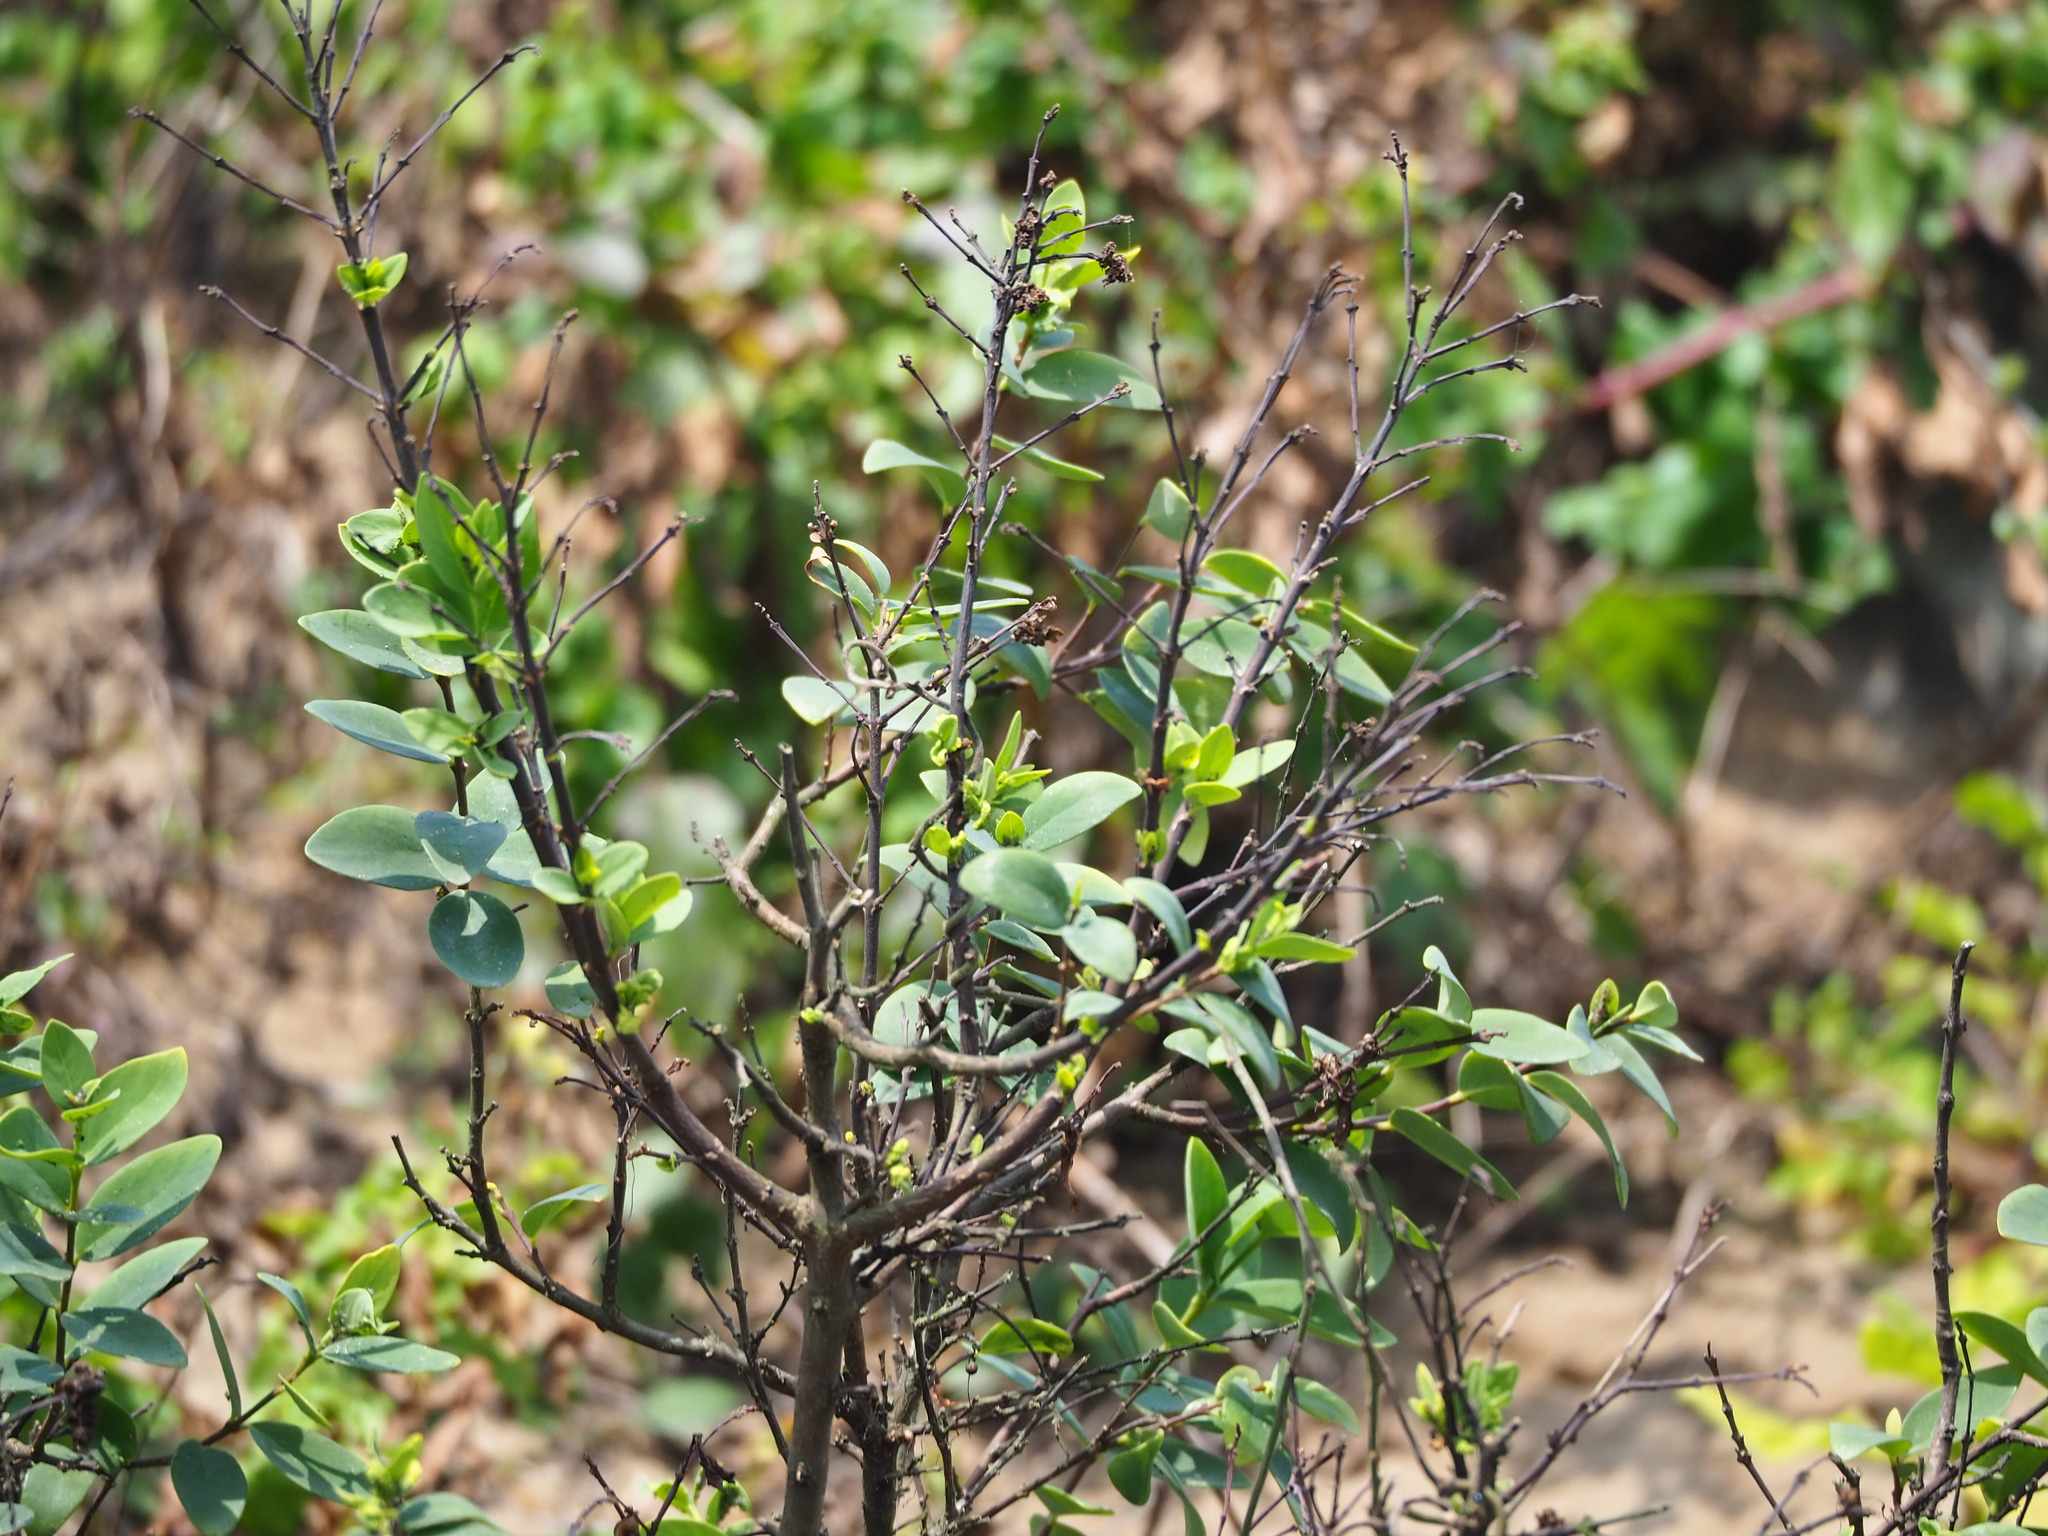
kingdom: Plantae
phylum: Tracheophyta
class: Magnoliopsida
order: Malvales
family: Thymelaeaceae
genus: Wikstroemia
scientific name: Wikstroemia indica
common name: Tiebush
